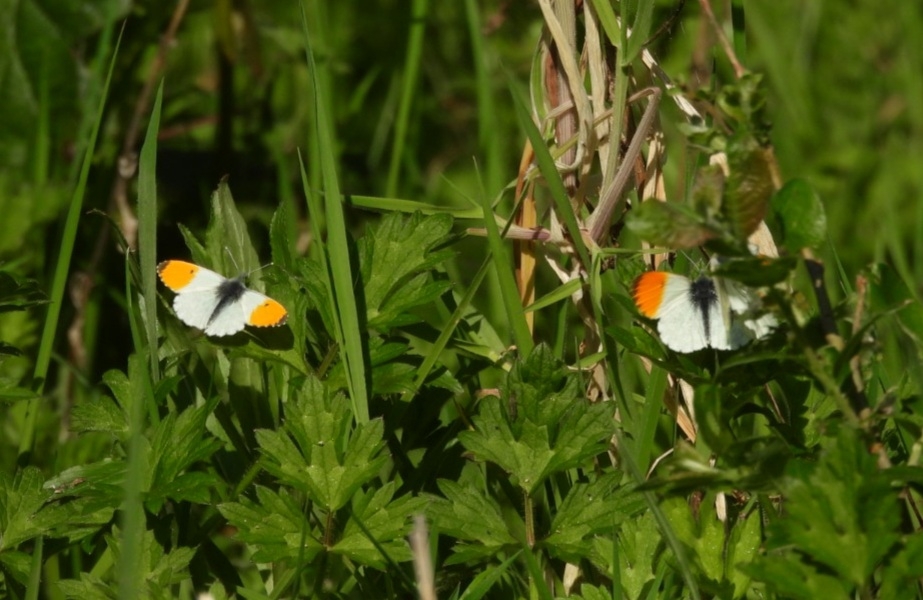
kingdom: Animalia
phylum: Arthropoda
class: Insecta
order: Lepidoptera
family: Pieridae
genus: Anthocharis
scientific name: Anthocharis cardamines
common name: Orange-tip
